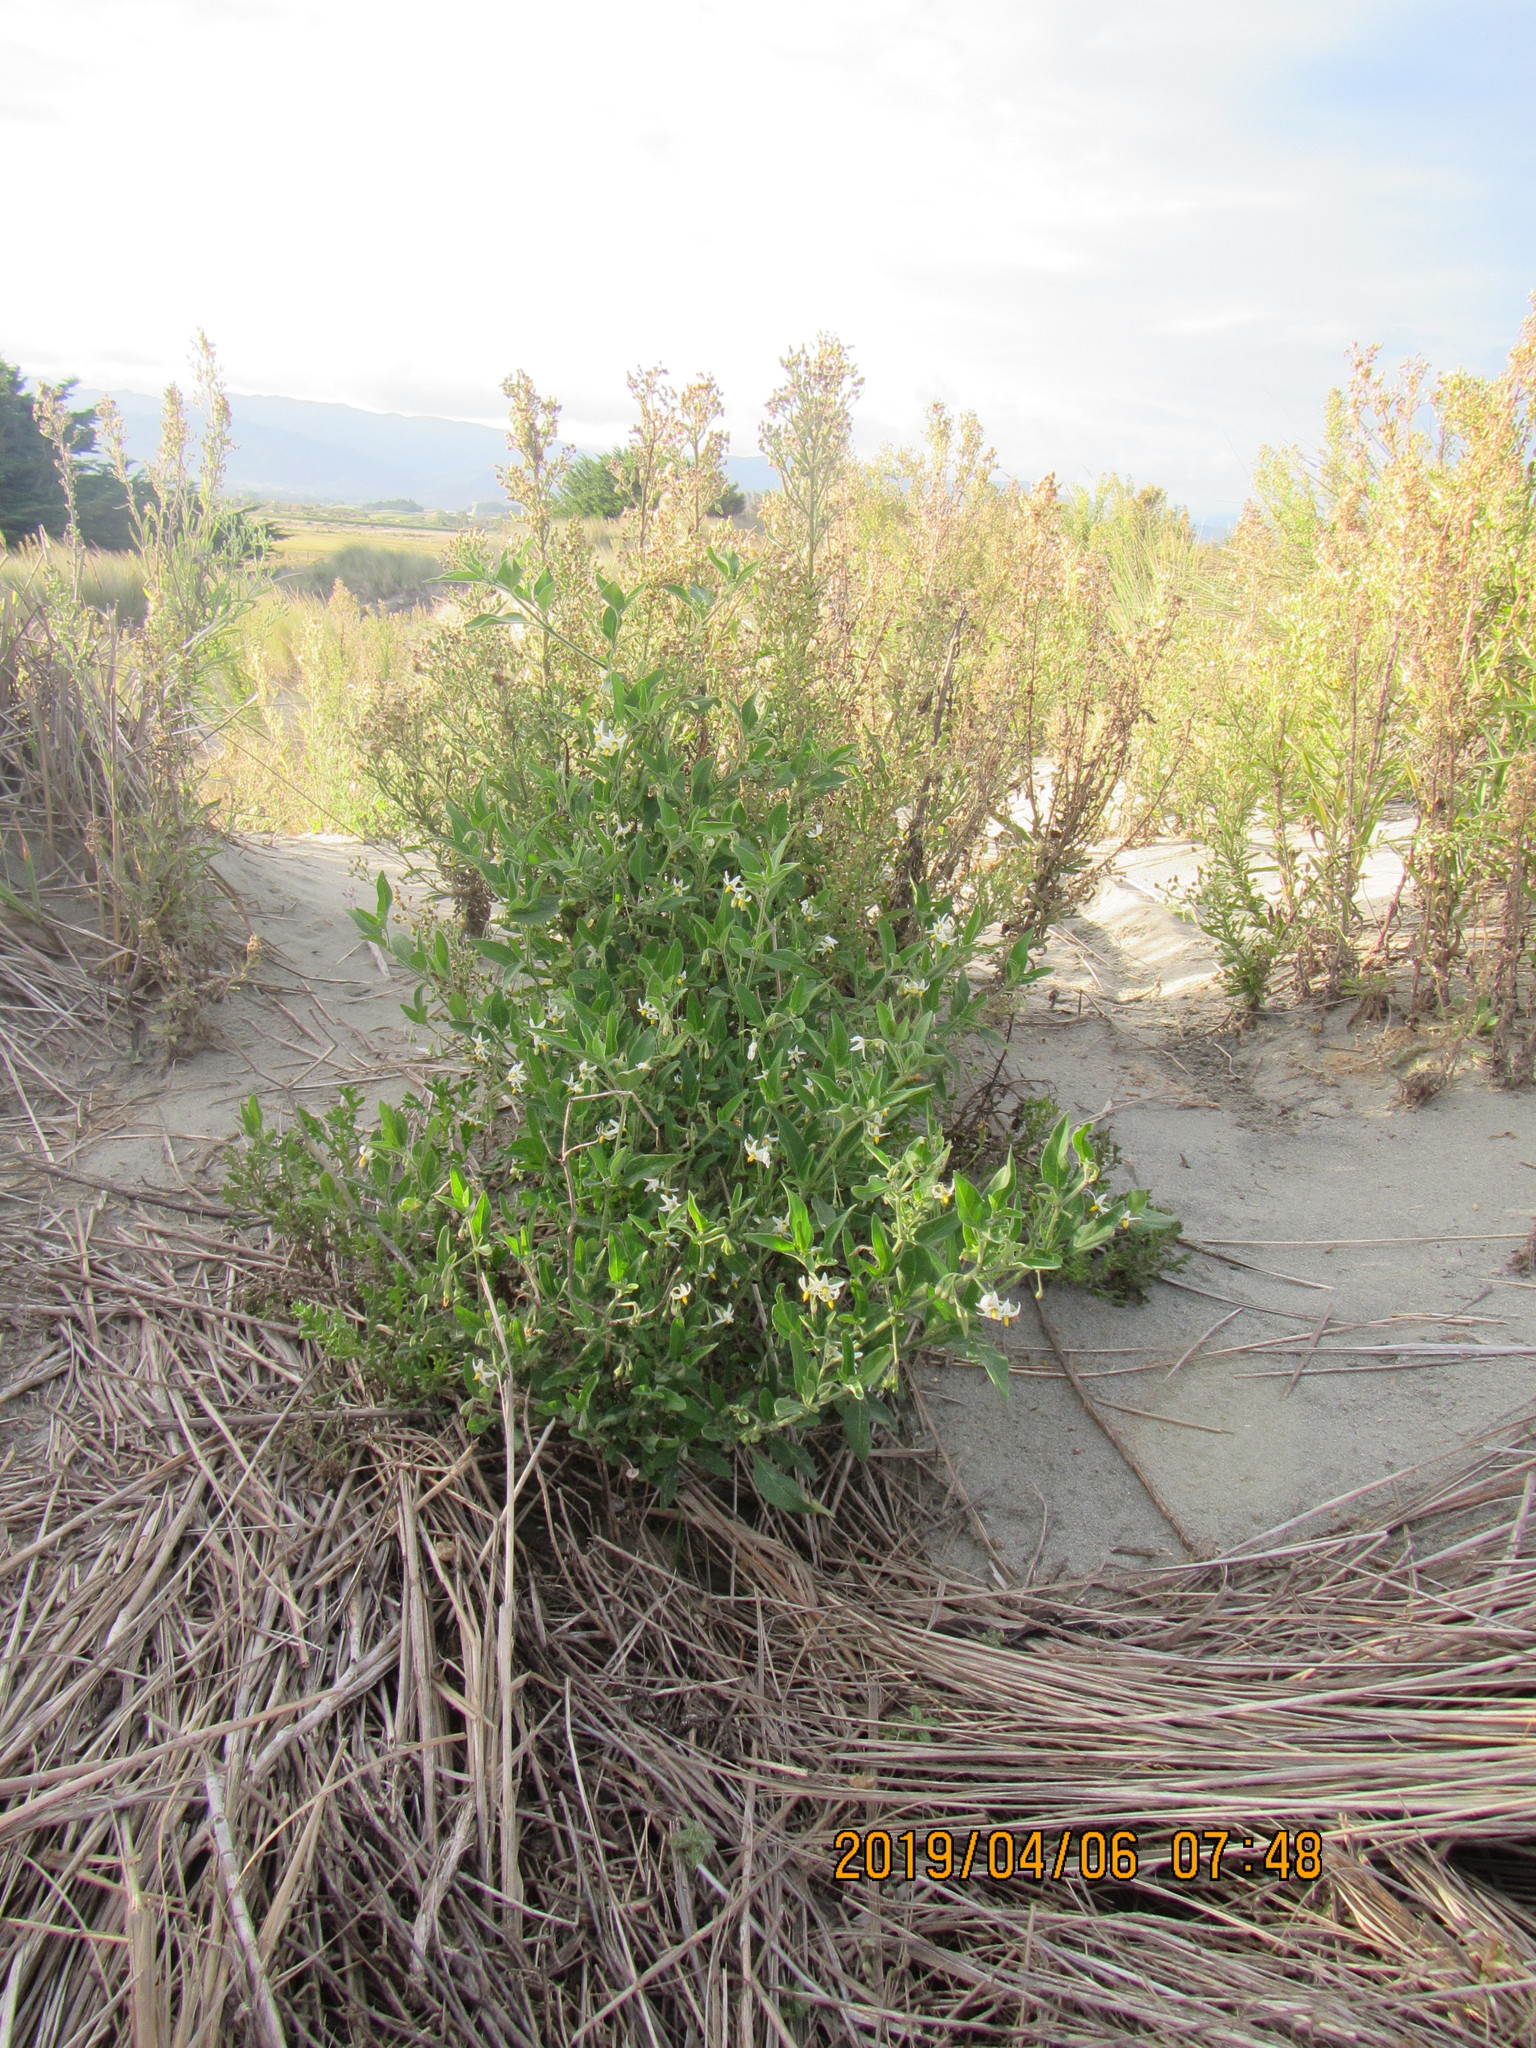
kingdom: Plantae
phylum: Tracheophyta
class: Magnoliopsida
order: Solanales
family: Solanaceae
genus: Solanum
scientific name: Solanum chenopodioides
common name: Tall nightshade
